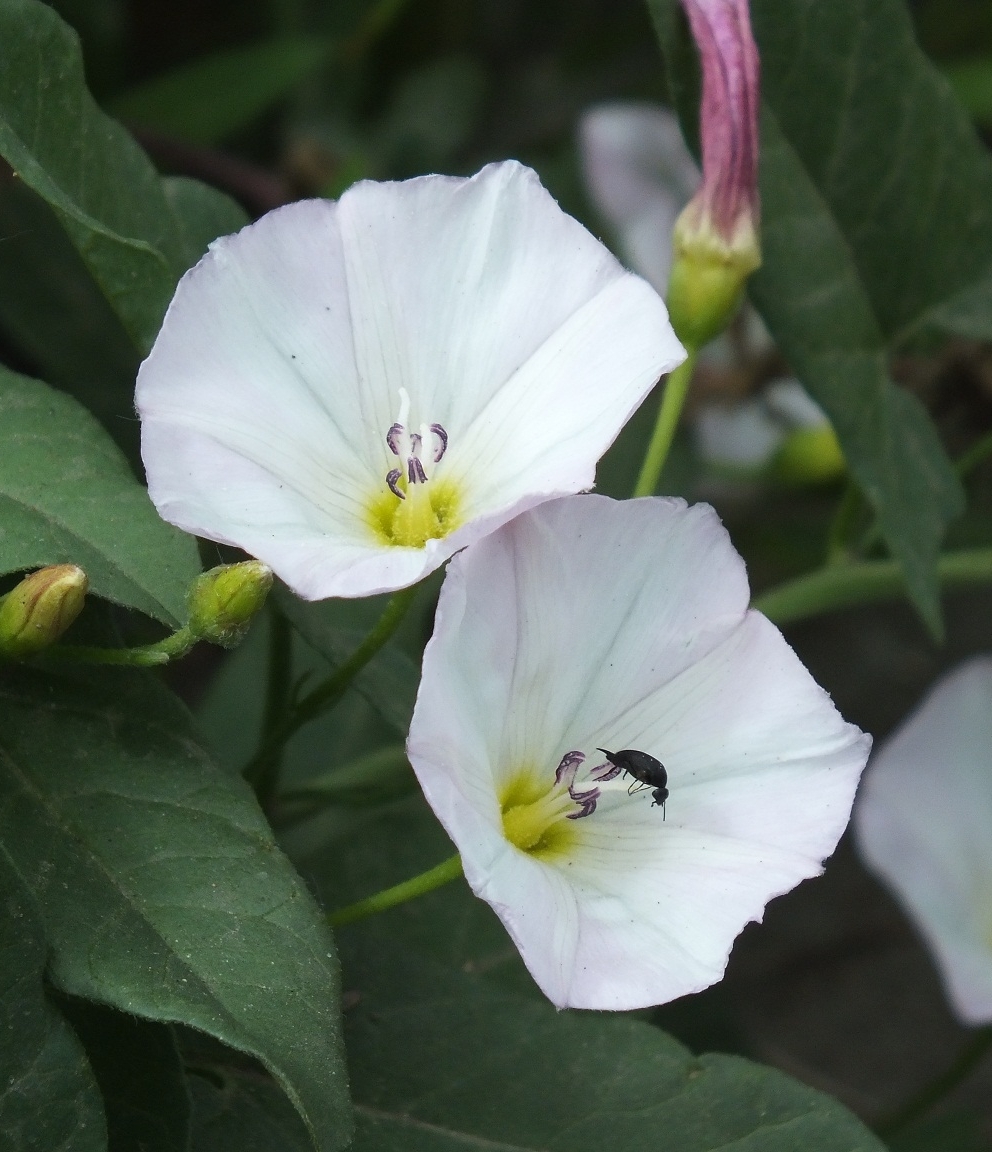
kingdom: Plantae
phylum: Tracheophyta
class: Magnoliopsida
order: Solanales
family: Convolvulaceae
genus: Convolvulus
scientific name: Convolvulus arvensis
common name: Field bindweed
